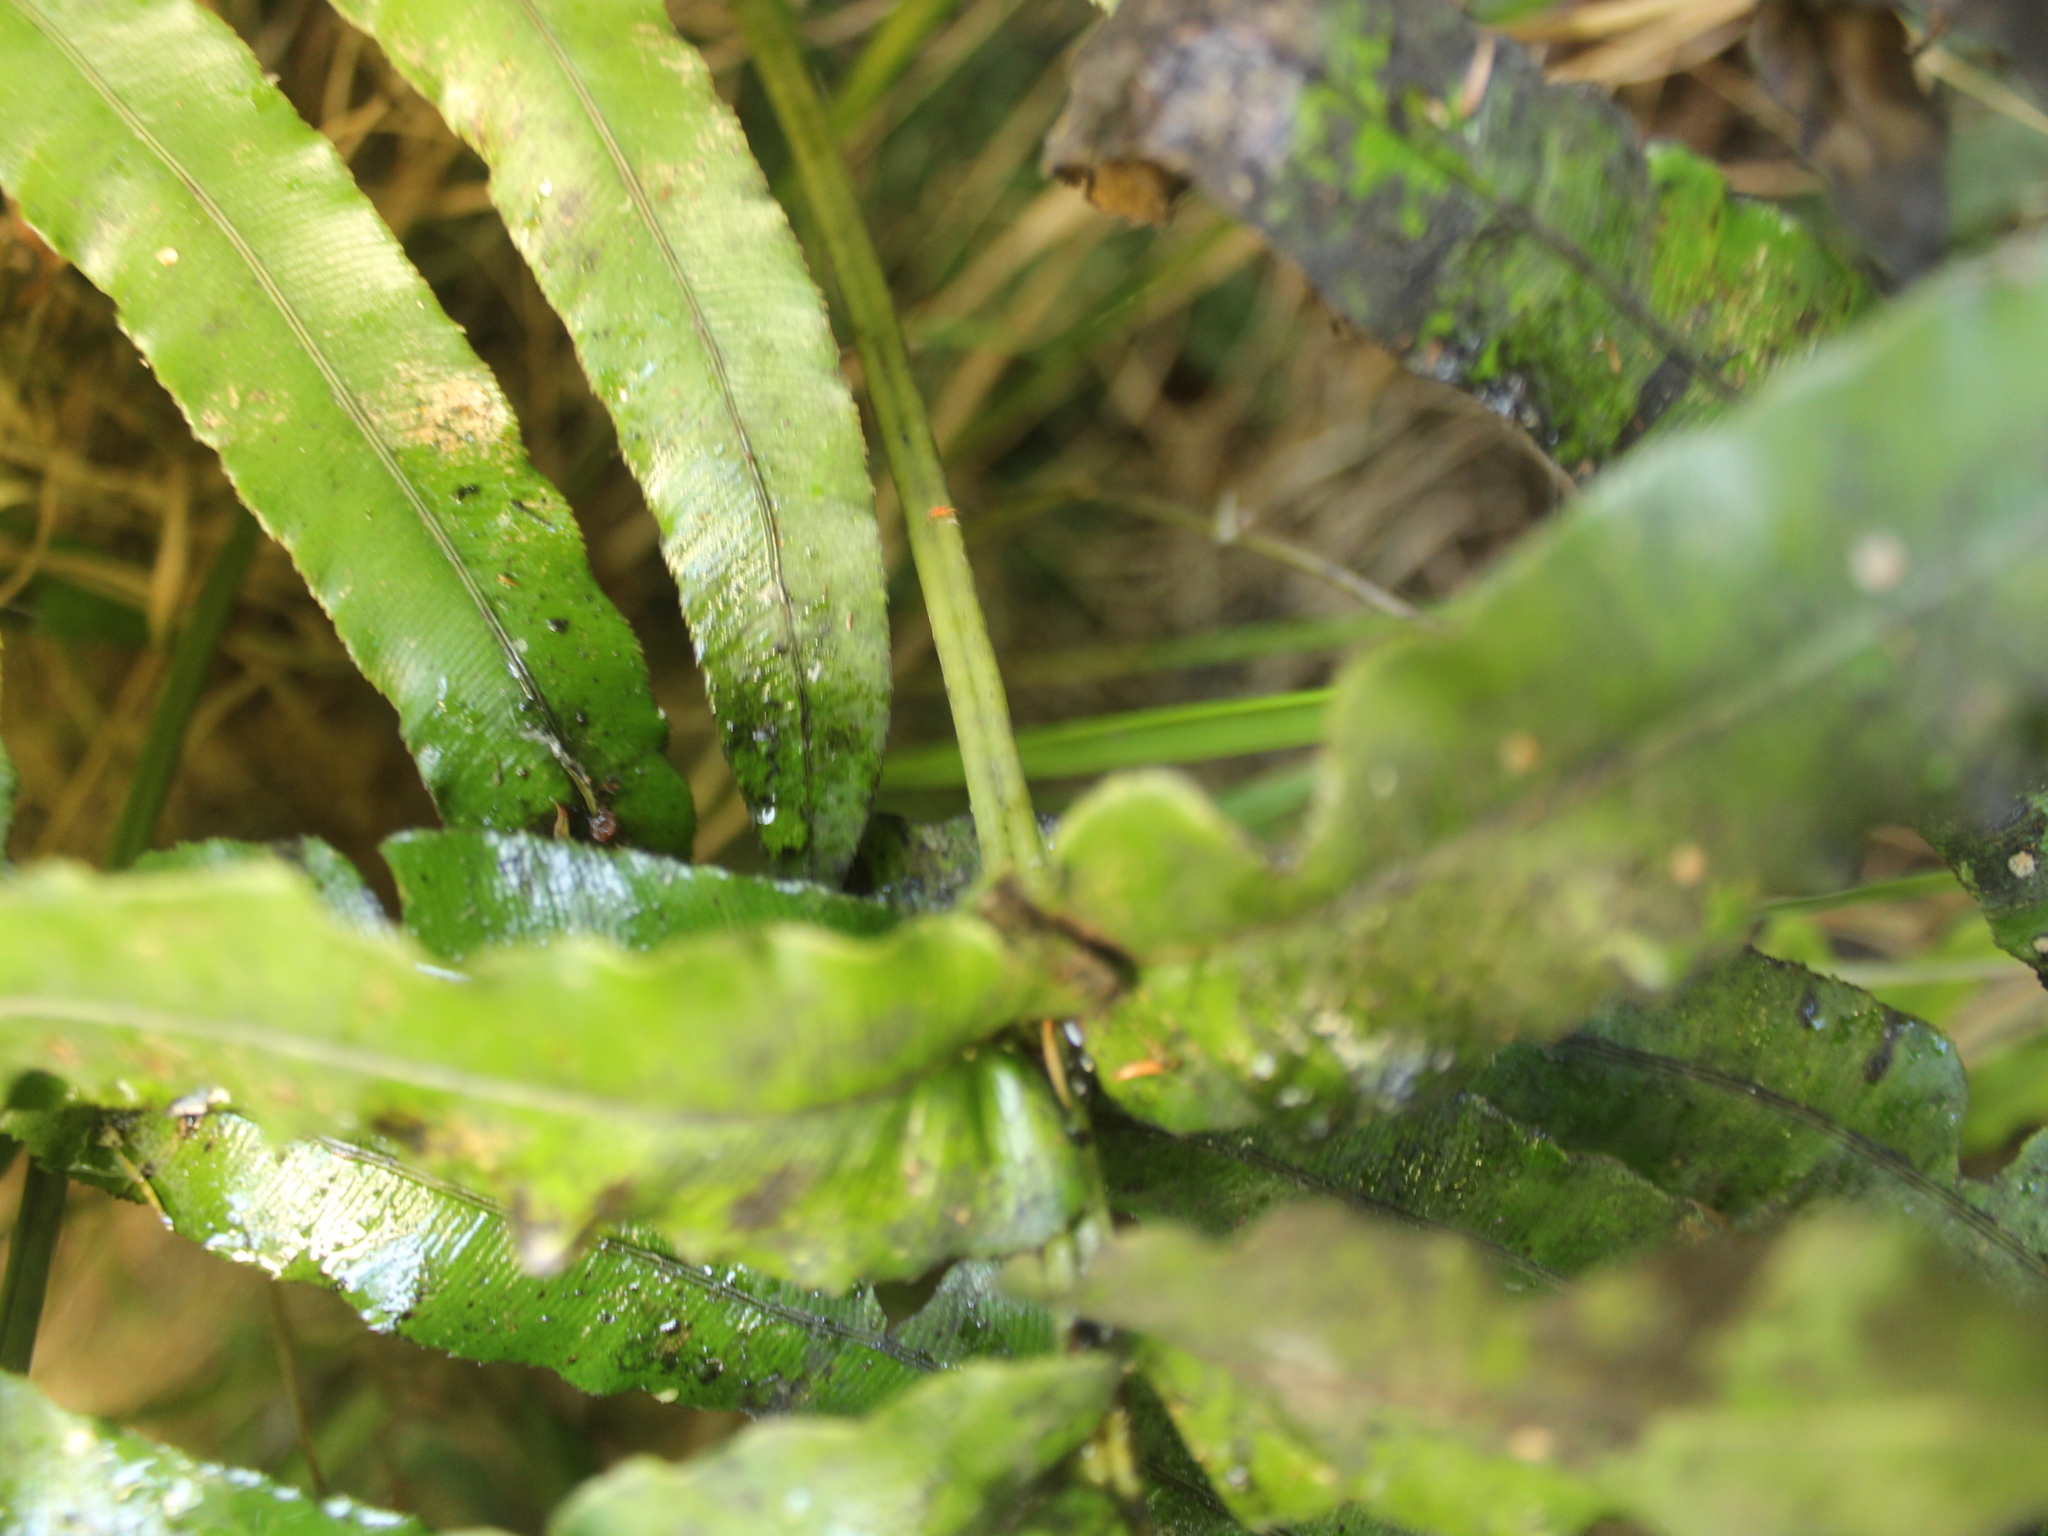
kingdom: Plantae
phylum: Tracheophyta
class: Polypodiopsida
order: Polypodiales
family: Blechnaceae
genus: Parablechnum
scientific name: Parablechnum triangularifolium
